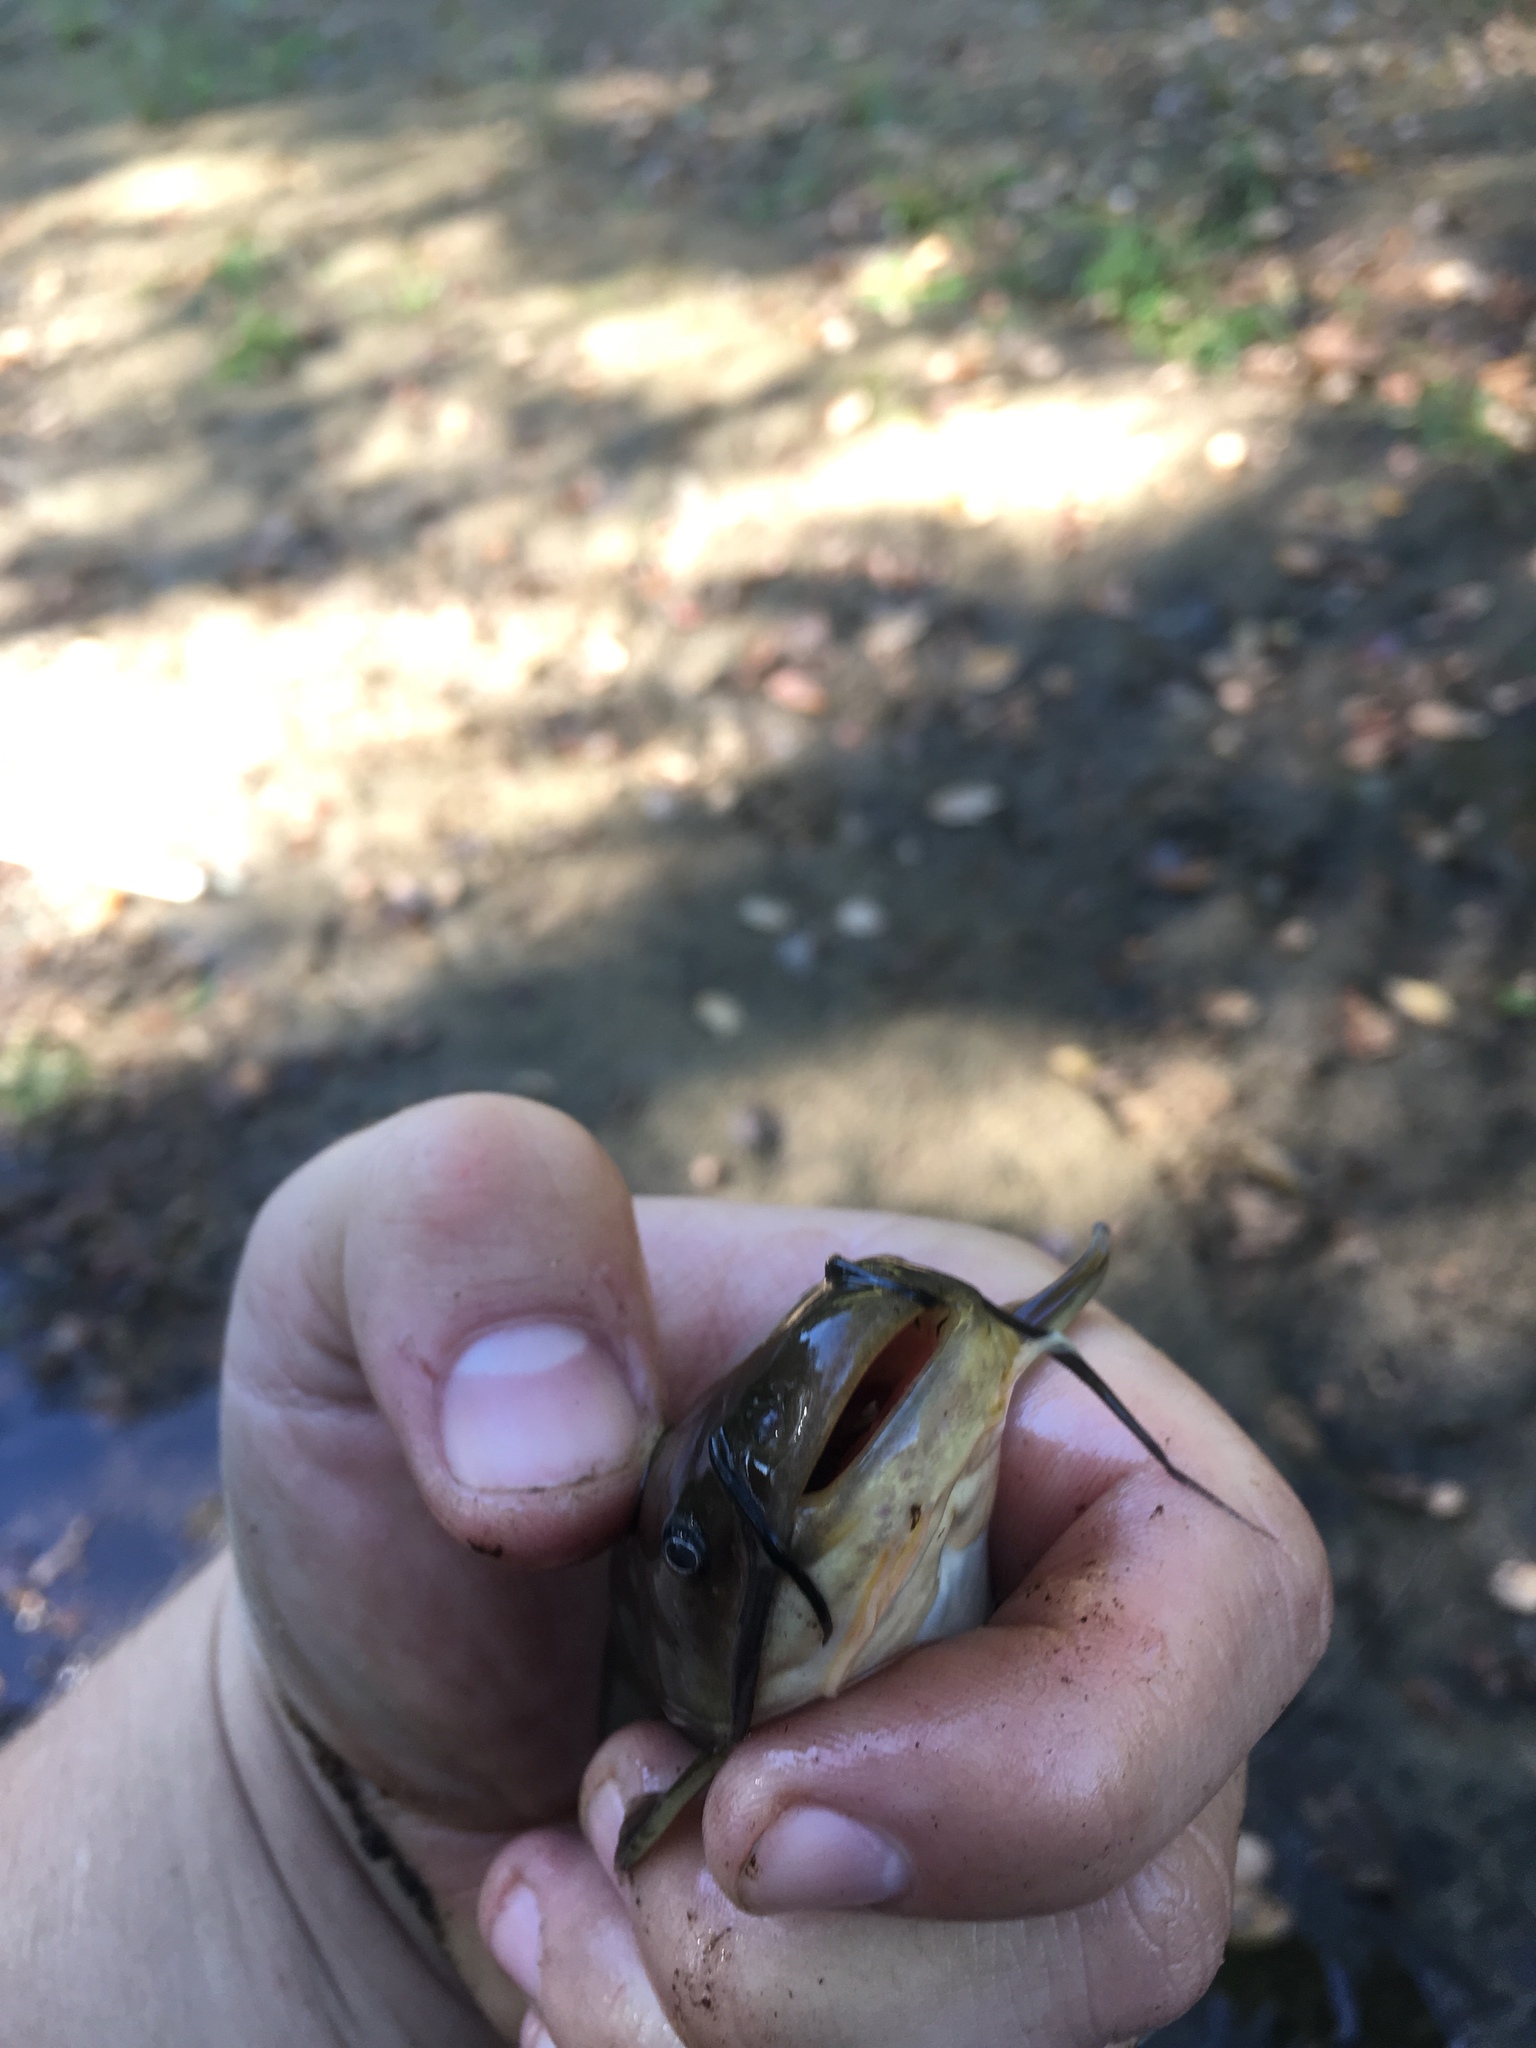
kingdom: Animalia
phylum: Chordata
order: Siluriformes
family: Ictaluridae
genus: Ameiurus
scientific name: Ameiurus natalis
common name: Yellow bullhead
